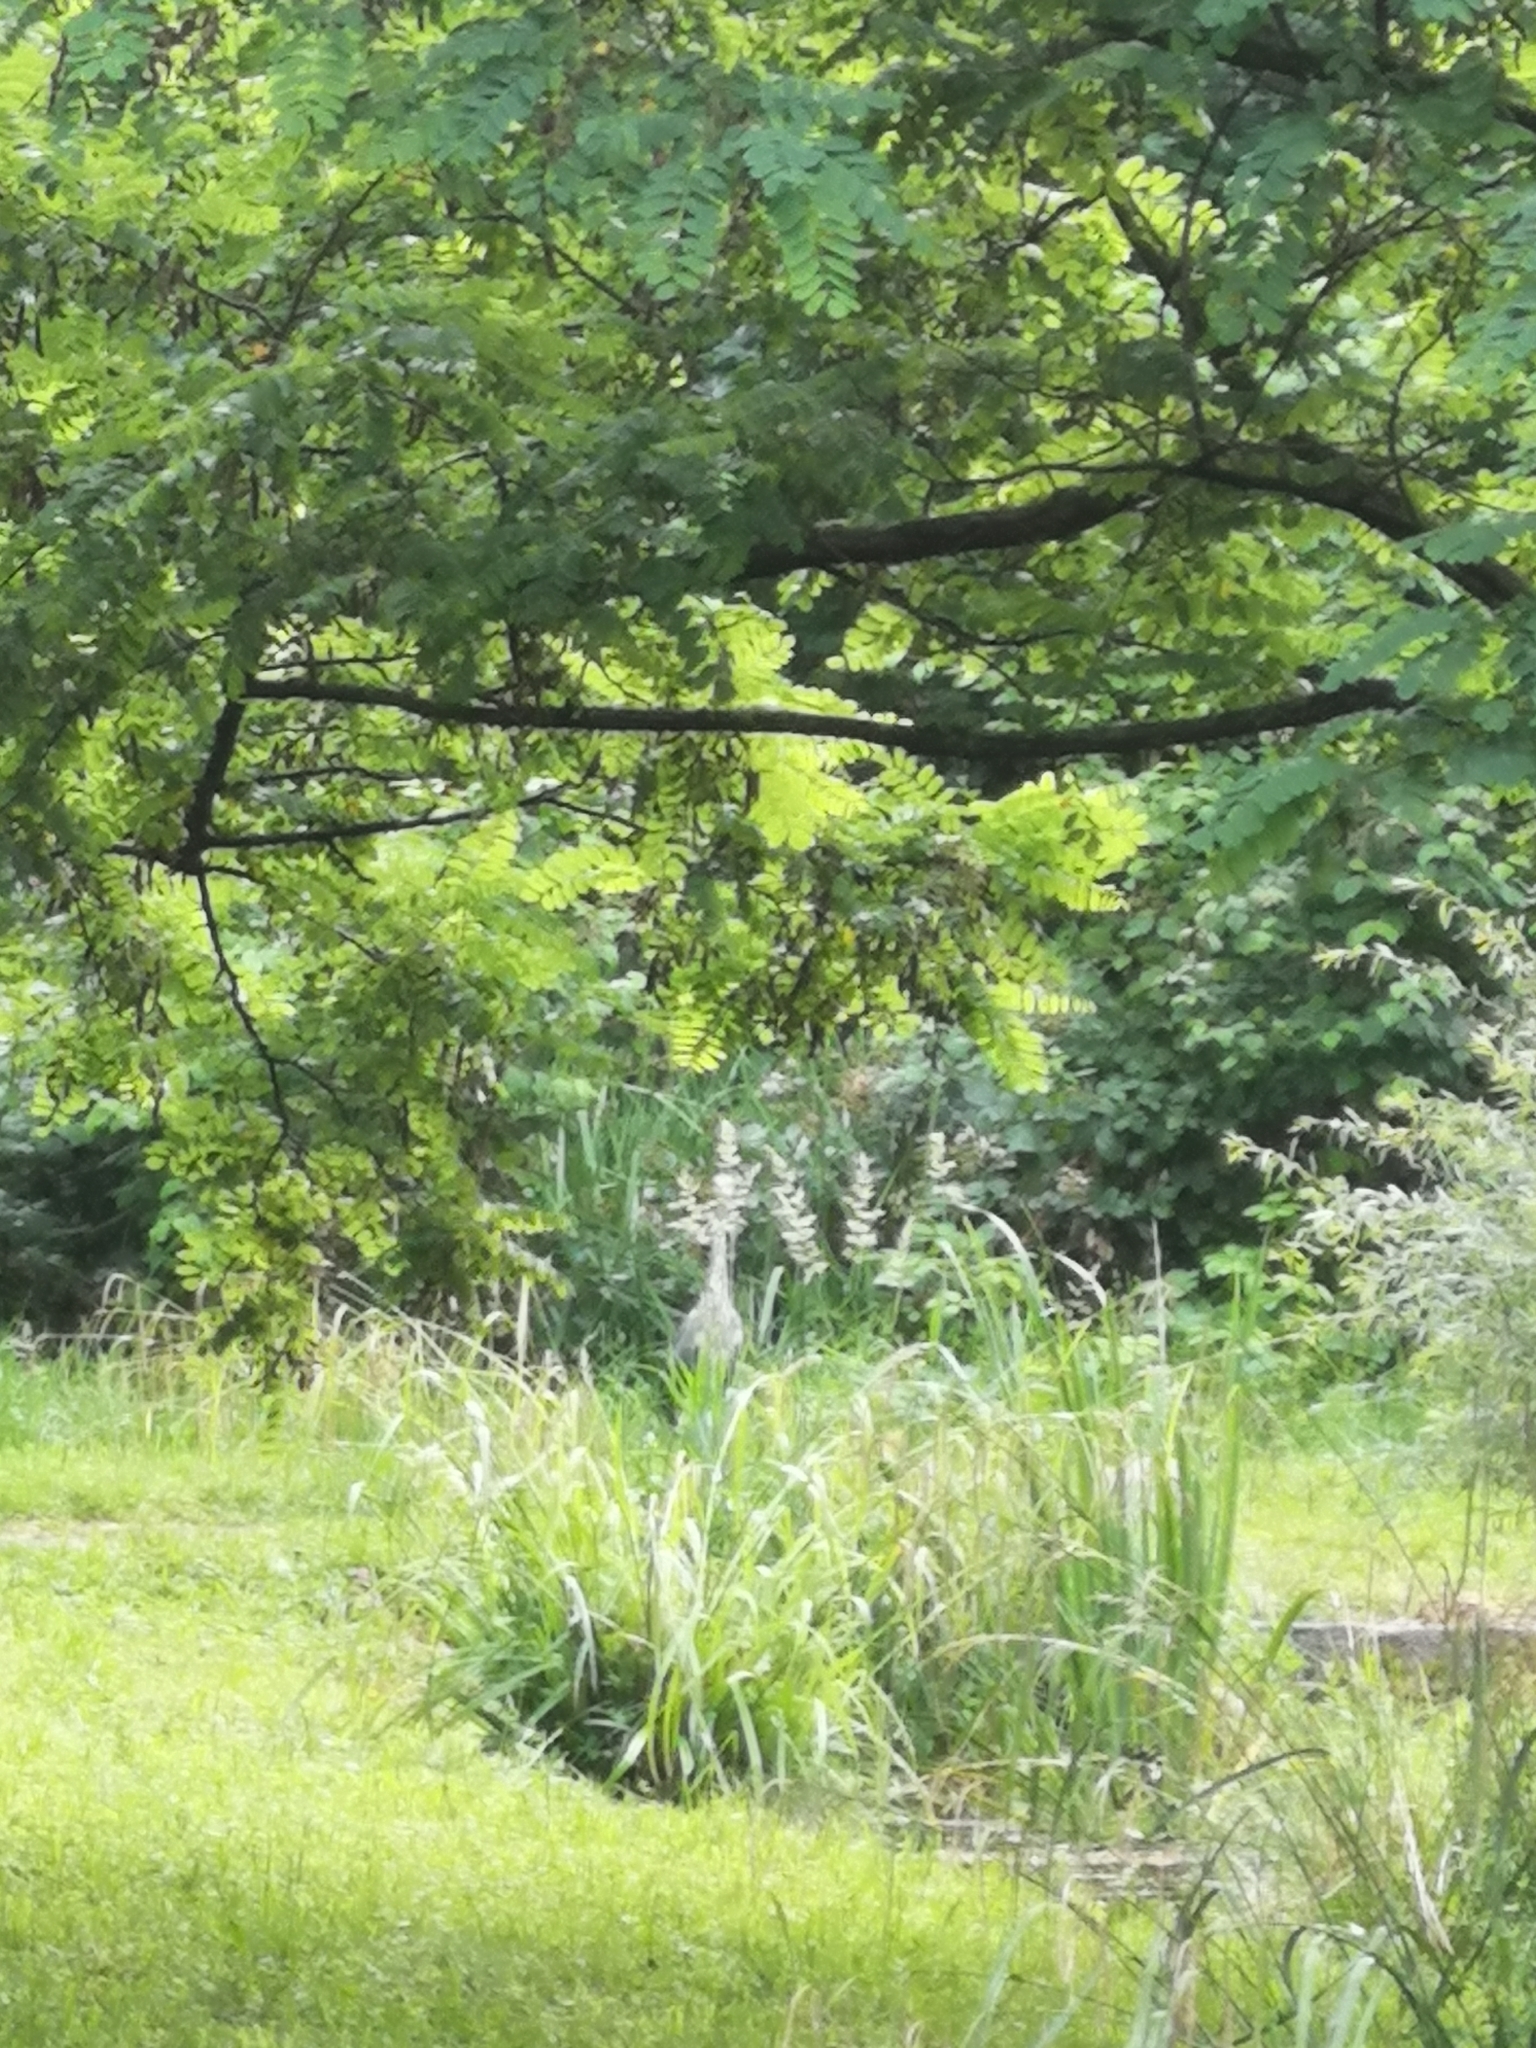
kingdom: Animalia
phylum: Chordata
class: Aves
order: Pelecaniformes
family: Ardeidae
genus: Ardea
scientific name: Ardea cinerea
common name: Grey heron
